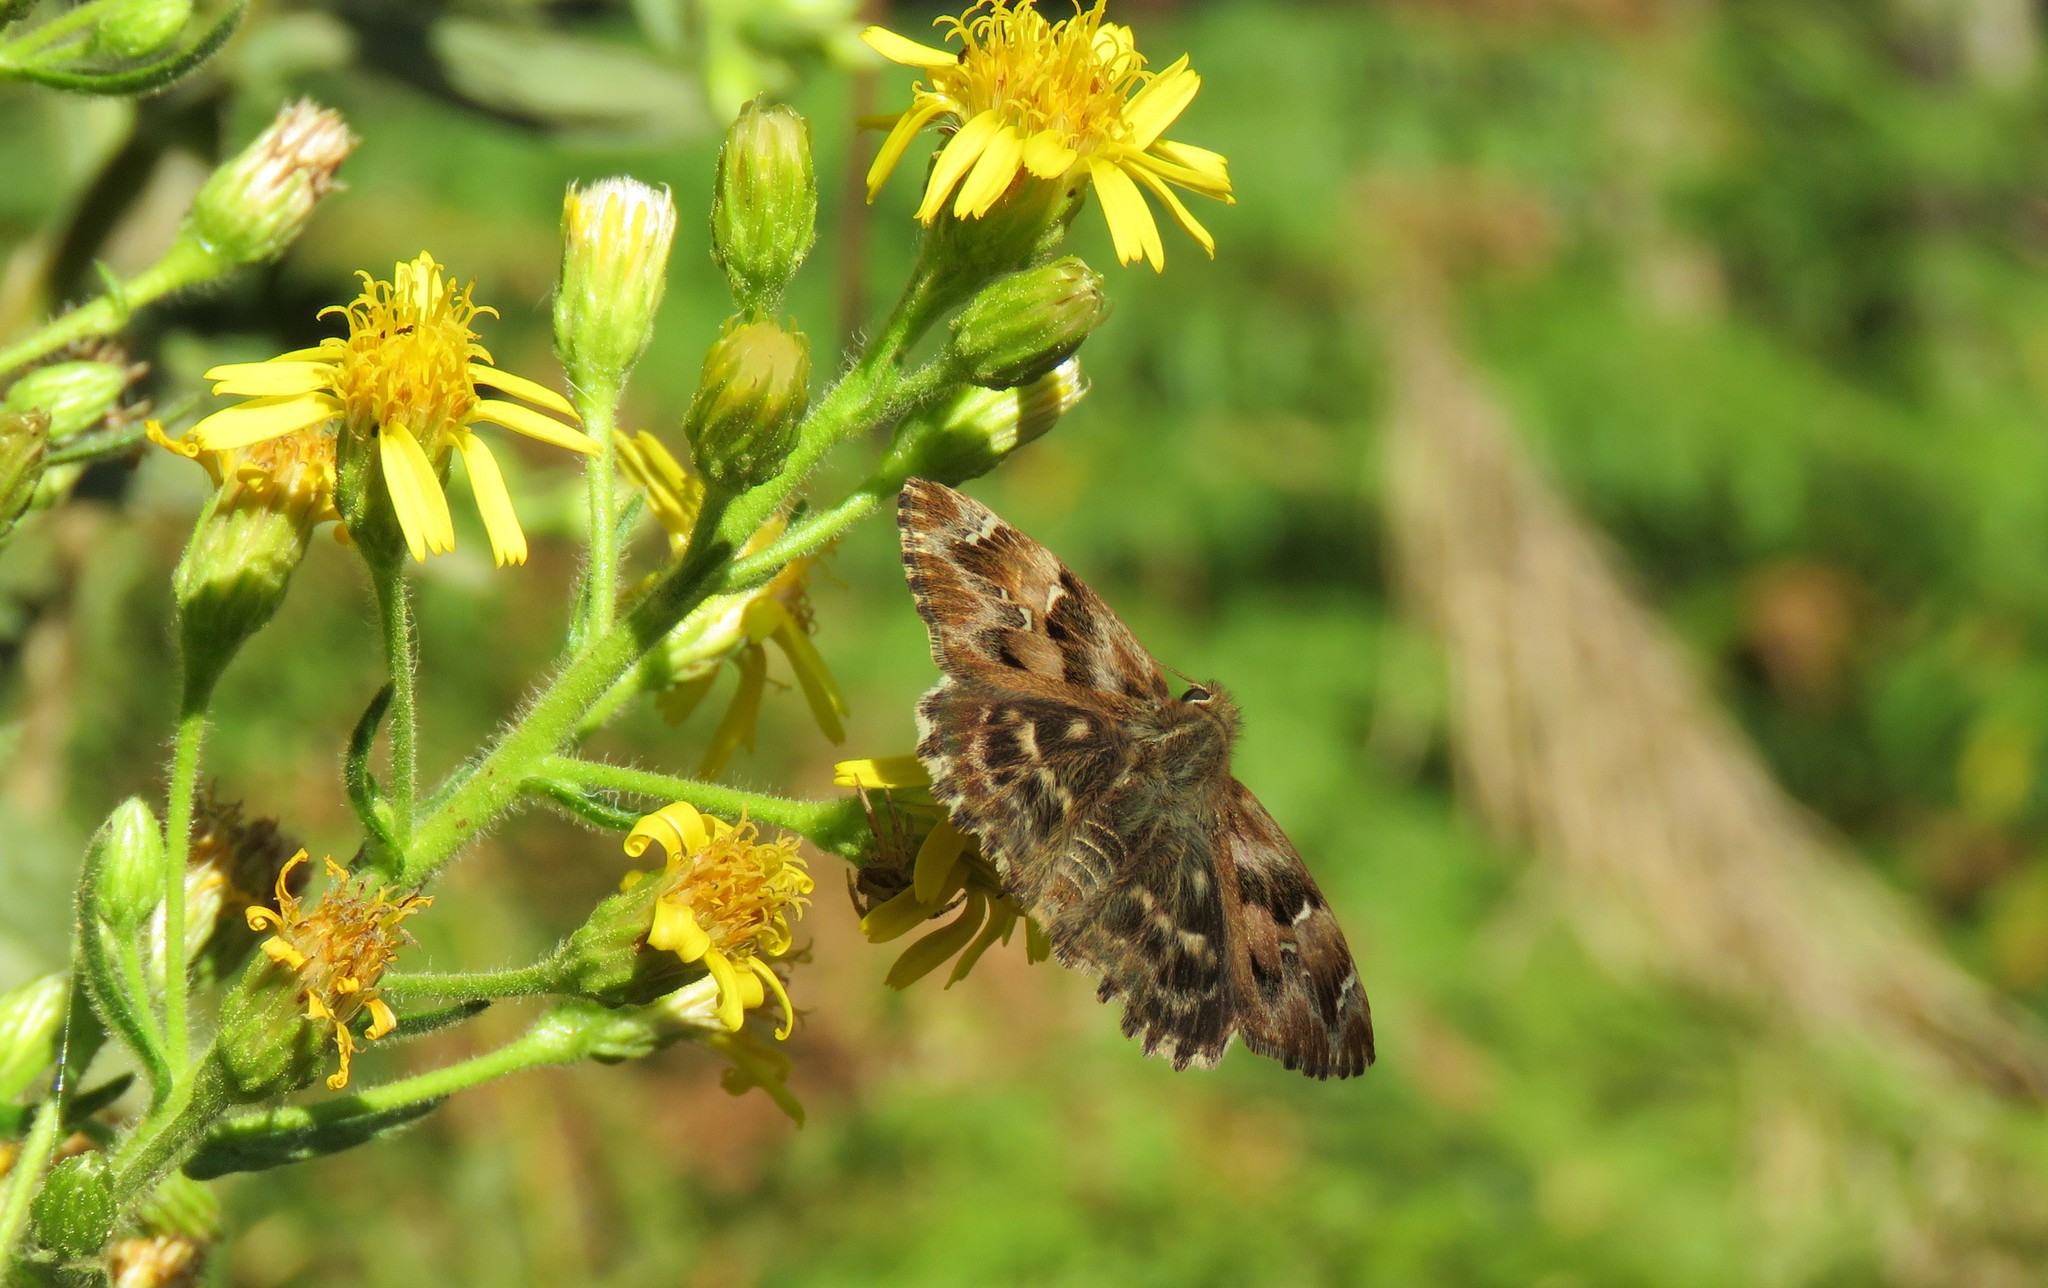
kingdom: Animalia
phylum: Arthropoda
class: Insecta
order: Lepidoptera
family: Hesperiidae
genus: Carcharodus
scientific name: Carcharodus alceae
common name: Mallow skipper
